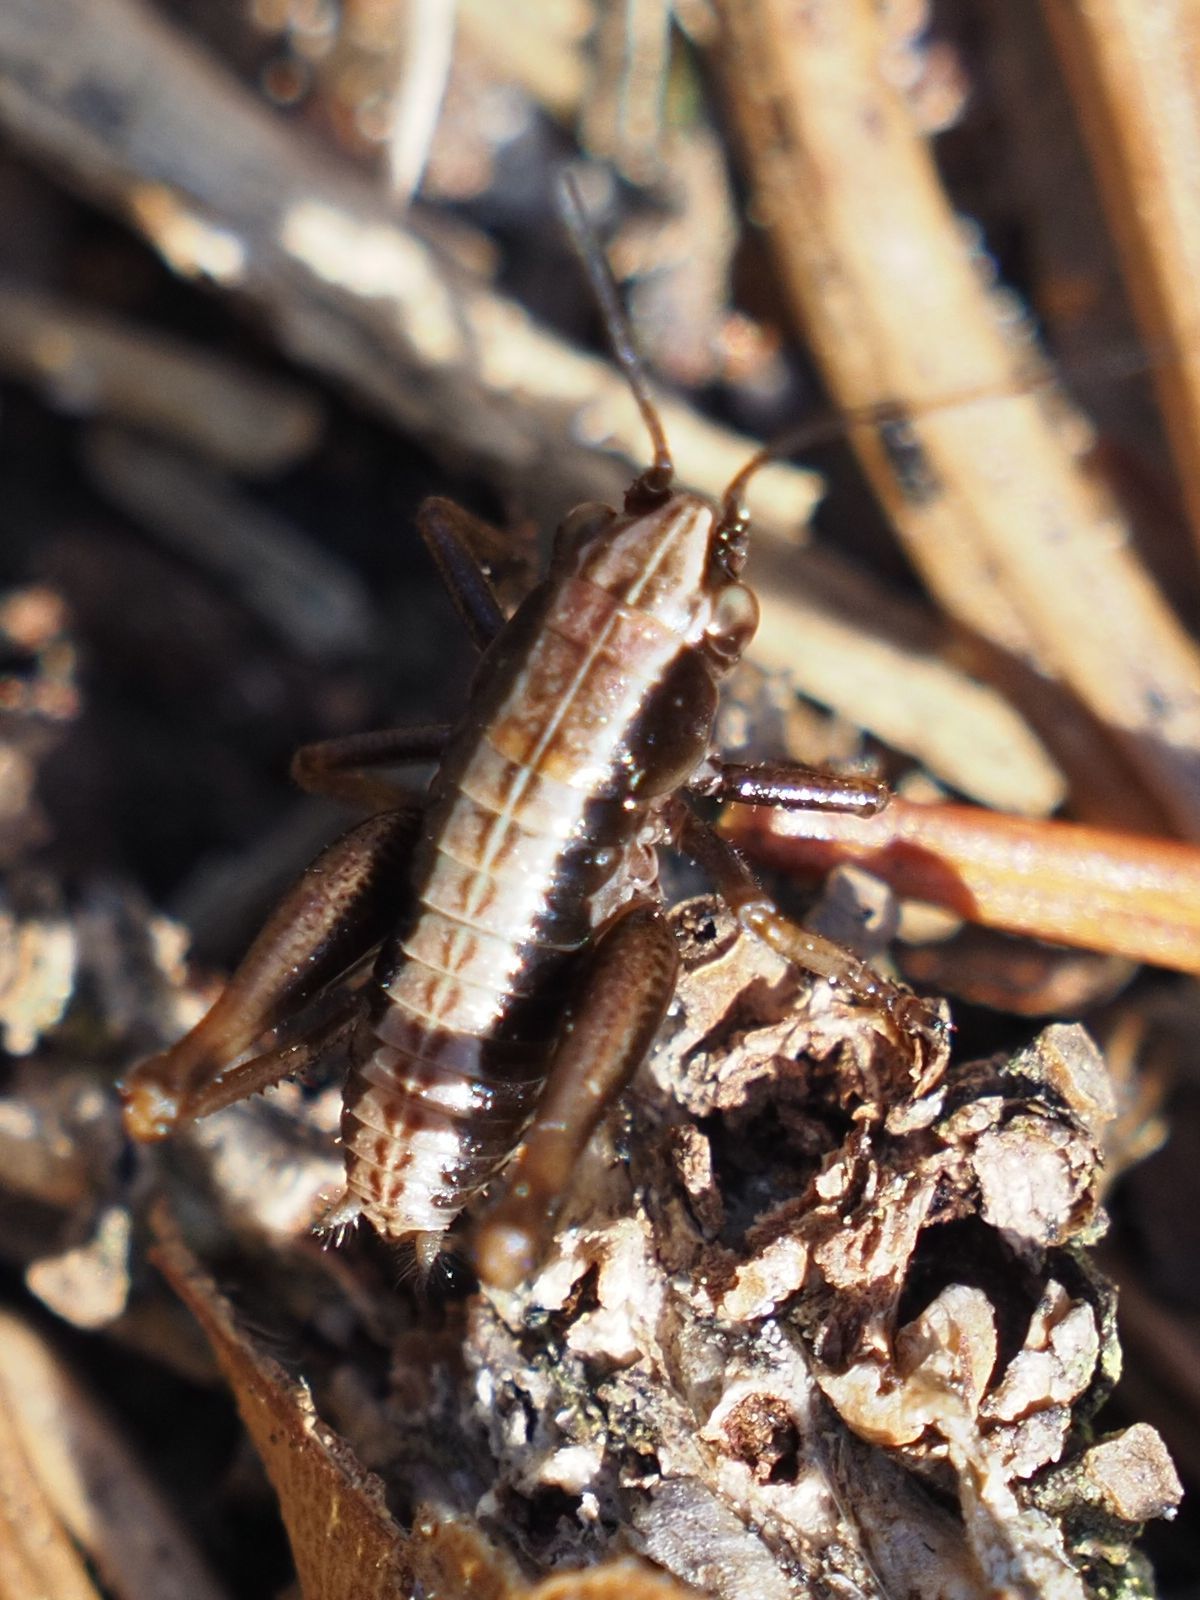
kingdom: Animalia
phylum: Arthropoda
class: Insecta
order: Orthoptera
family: Tettigoniidae
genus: Pholidoptera
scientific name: Pholidoptera griseoaptera
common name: Dark bush-cricket
